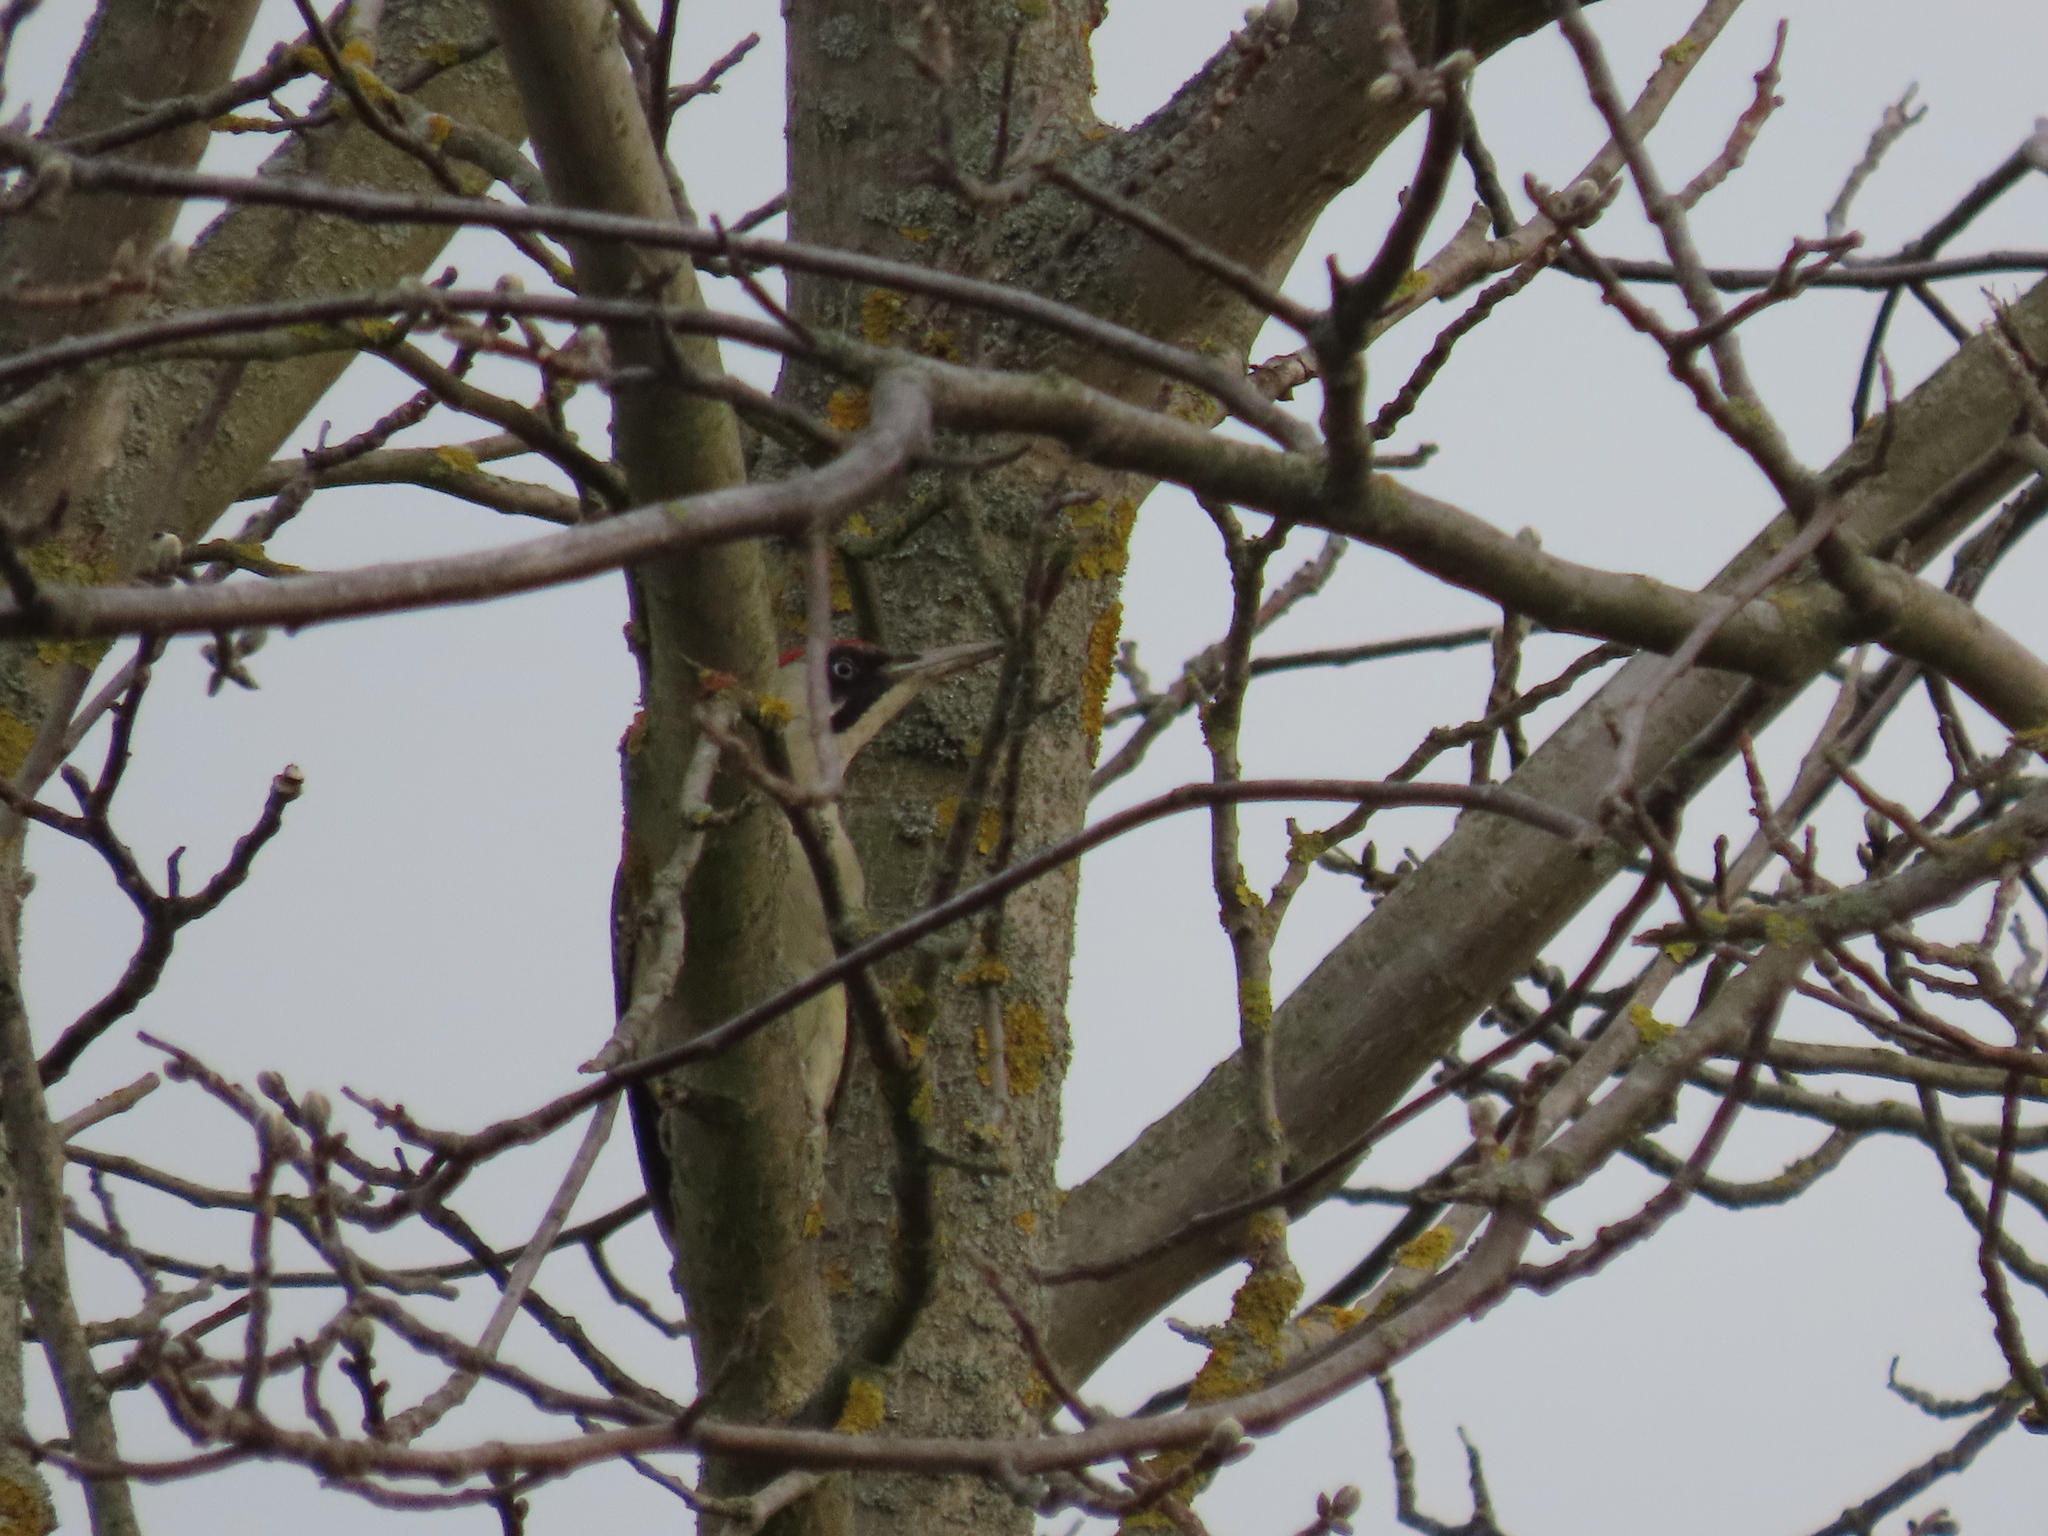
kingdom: Animalia
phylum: Chordata
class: Aves
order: Piciformes
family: Picidae
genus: Picus
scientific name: Picus viridis
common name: European green woodpecker
